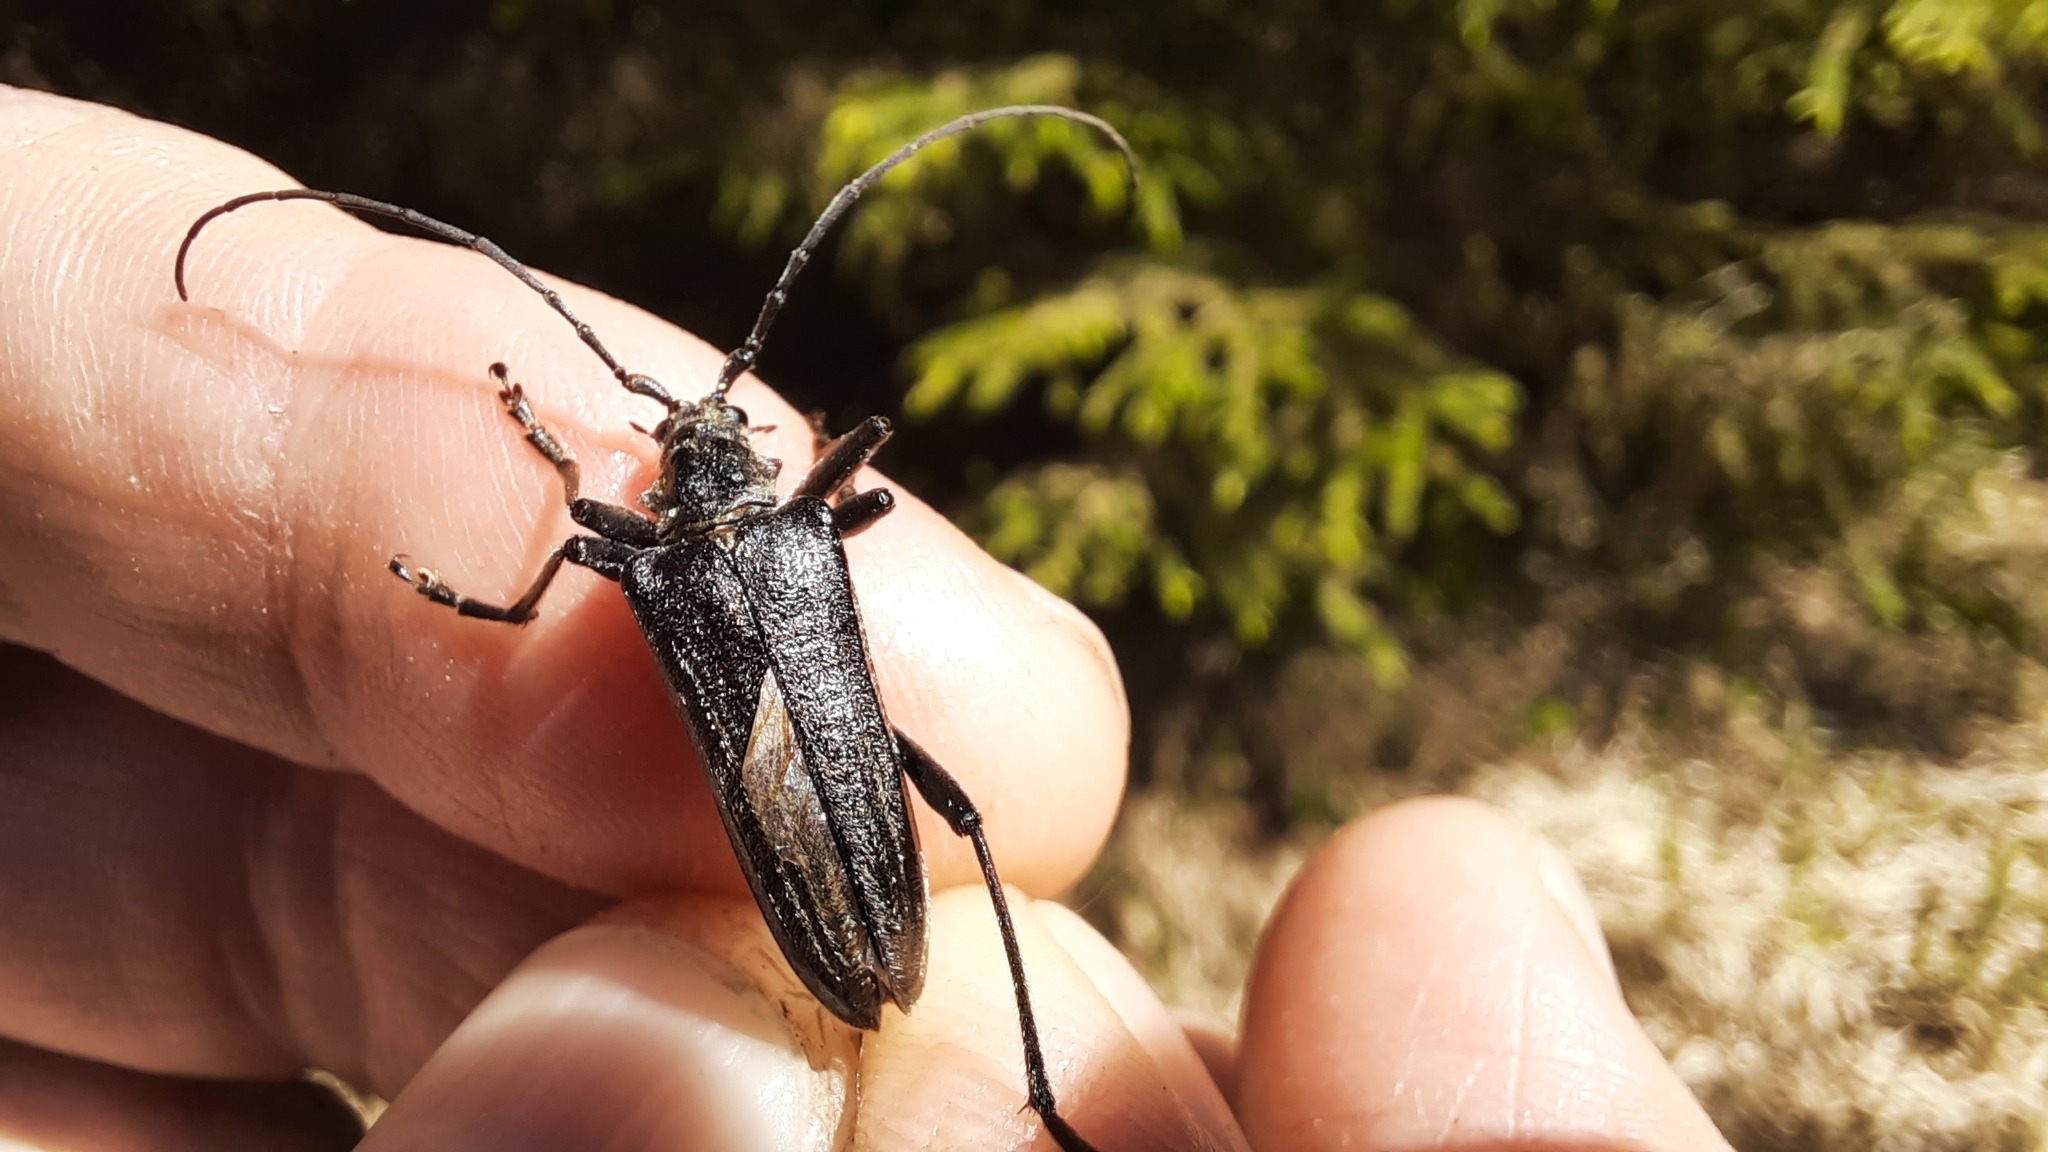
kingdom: Animalia
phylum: Arthropoda
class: Insecta
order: Coleoptera
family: Cerambycidae
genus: Oxymirus
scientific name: Oxymirus cursor
